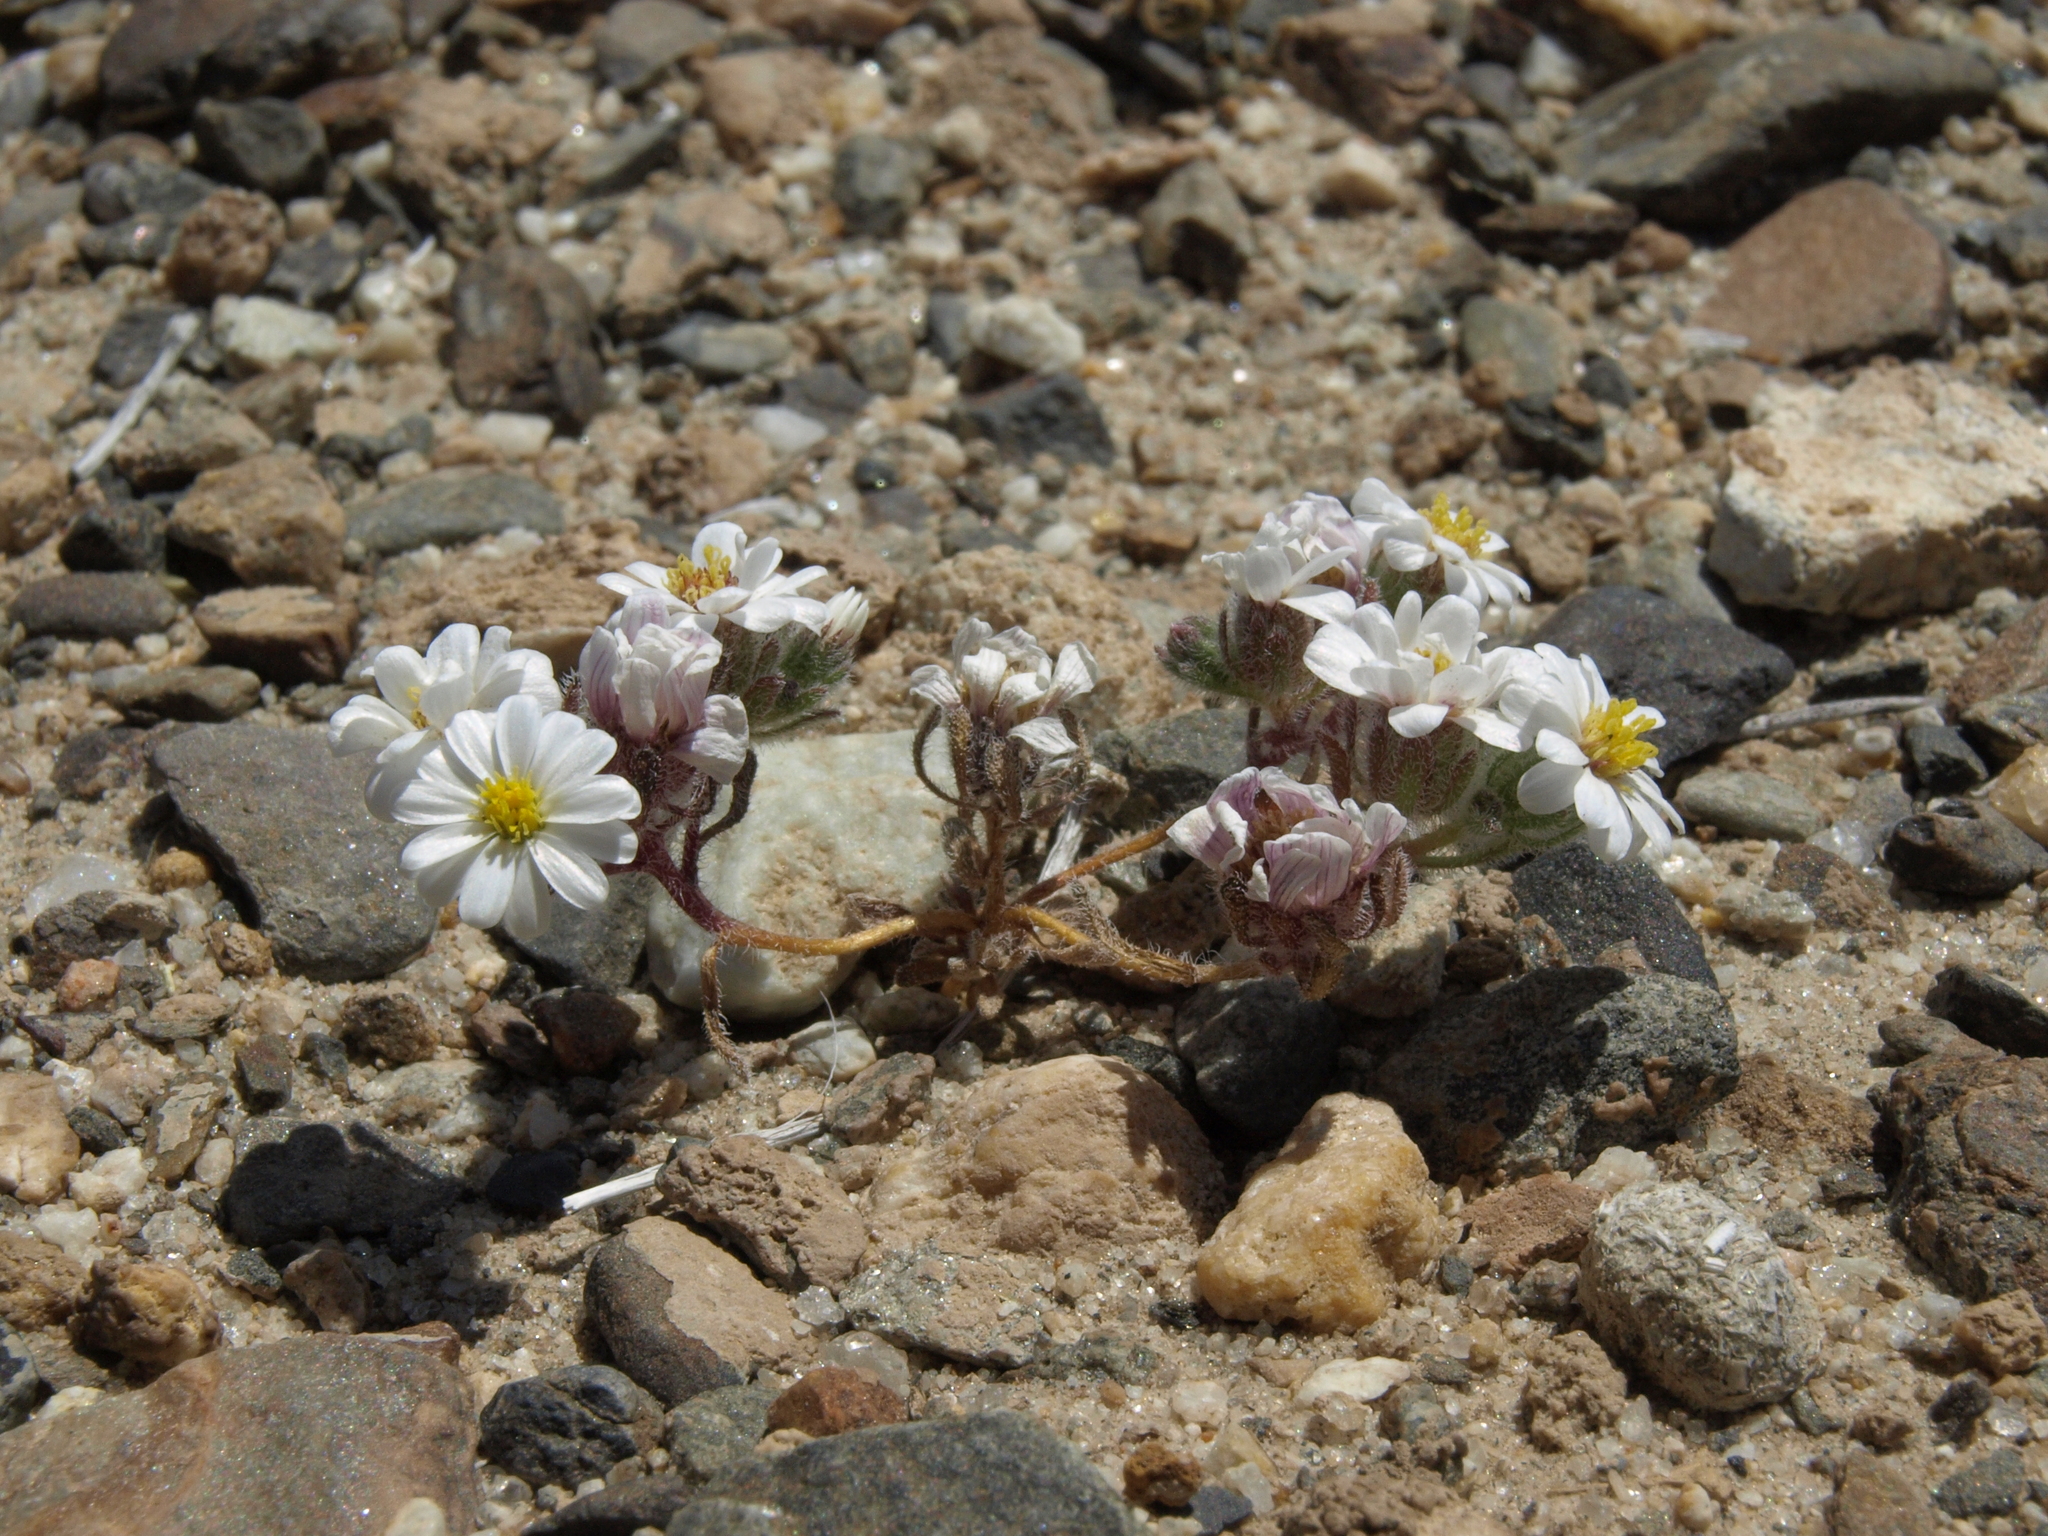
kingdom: Plantae
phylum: Tracheophyta
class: Magnoliopsida
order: Asterales
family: Asteraceae
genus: Monoptilon
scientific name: Monoptilon bellidiforme
